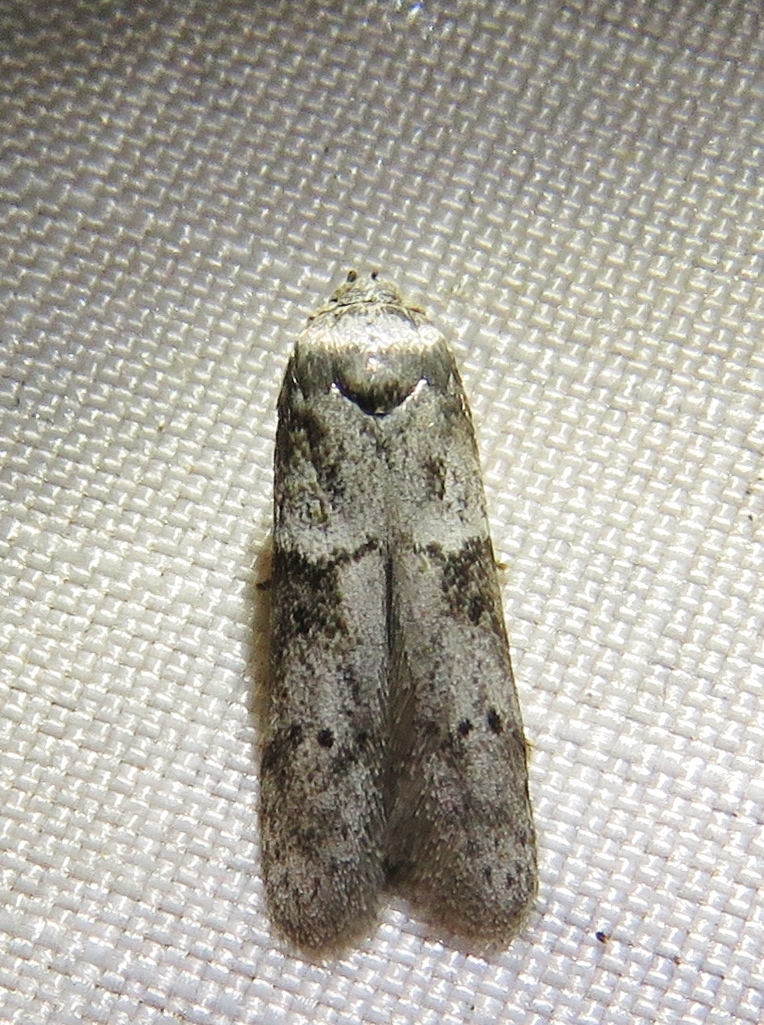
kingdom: Animalia
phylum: Arthropoda
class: Insecta
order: Lepidoptera
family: Blastobasidae
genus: Blastobasis
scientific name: Blastobasis glandulella
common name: Acorn moth
